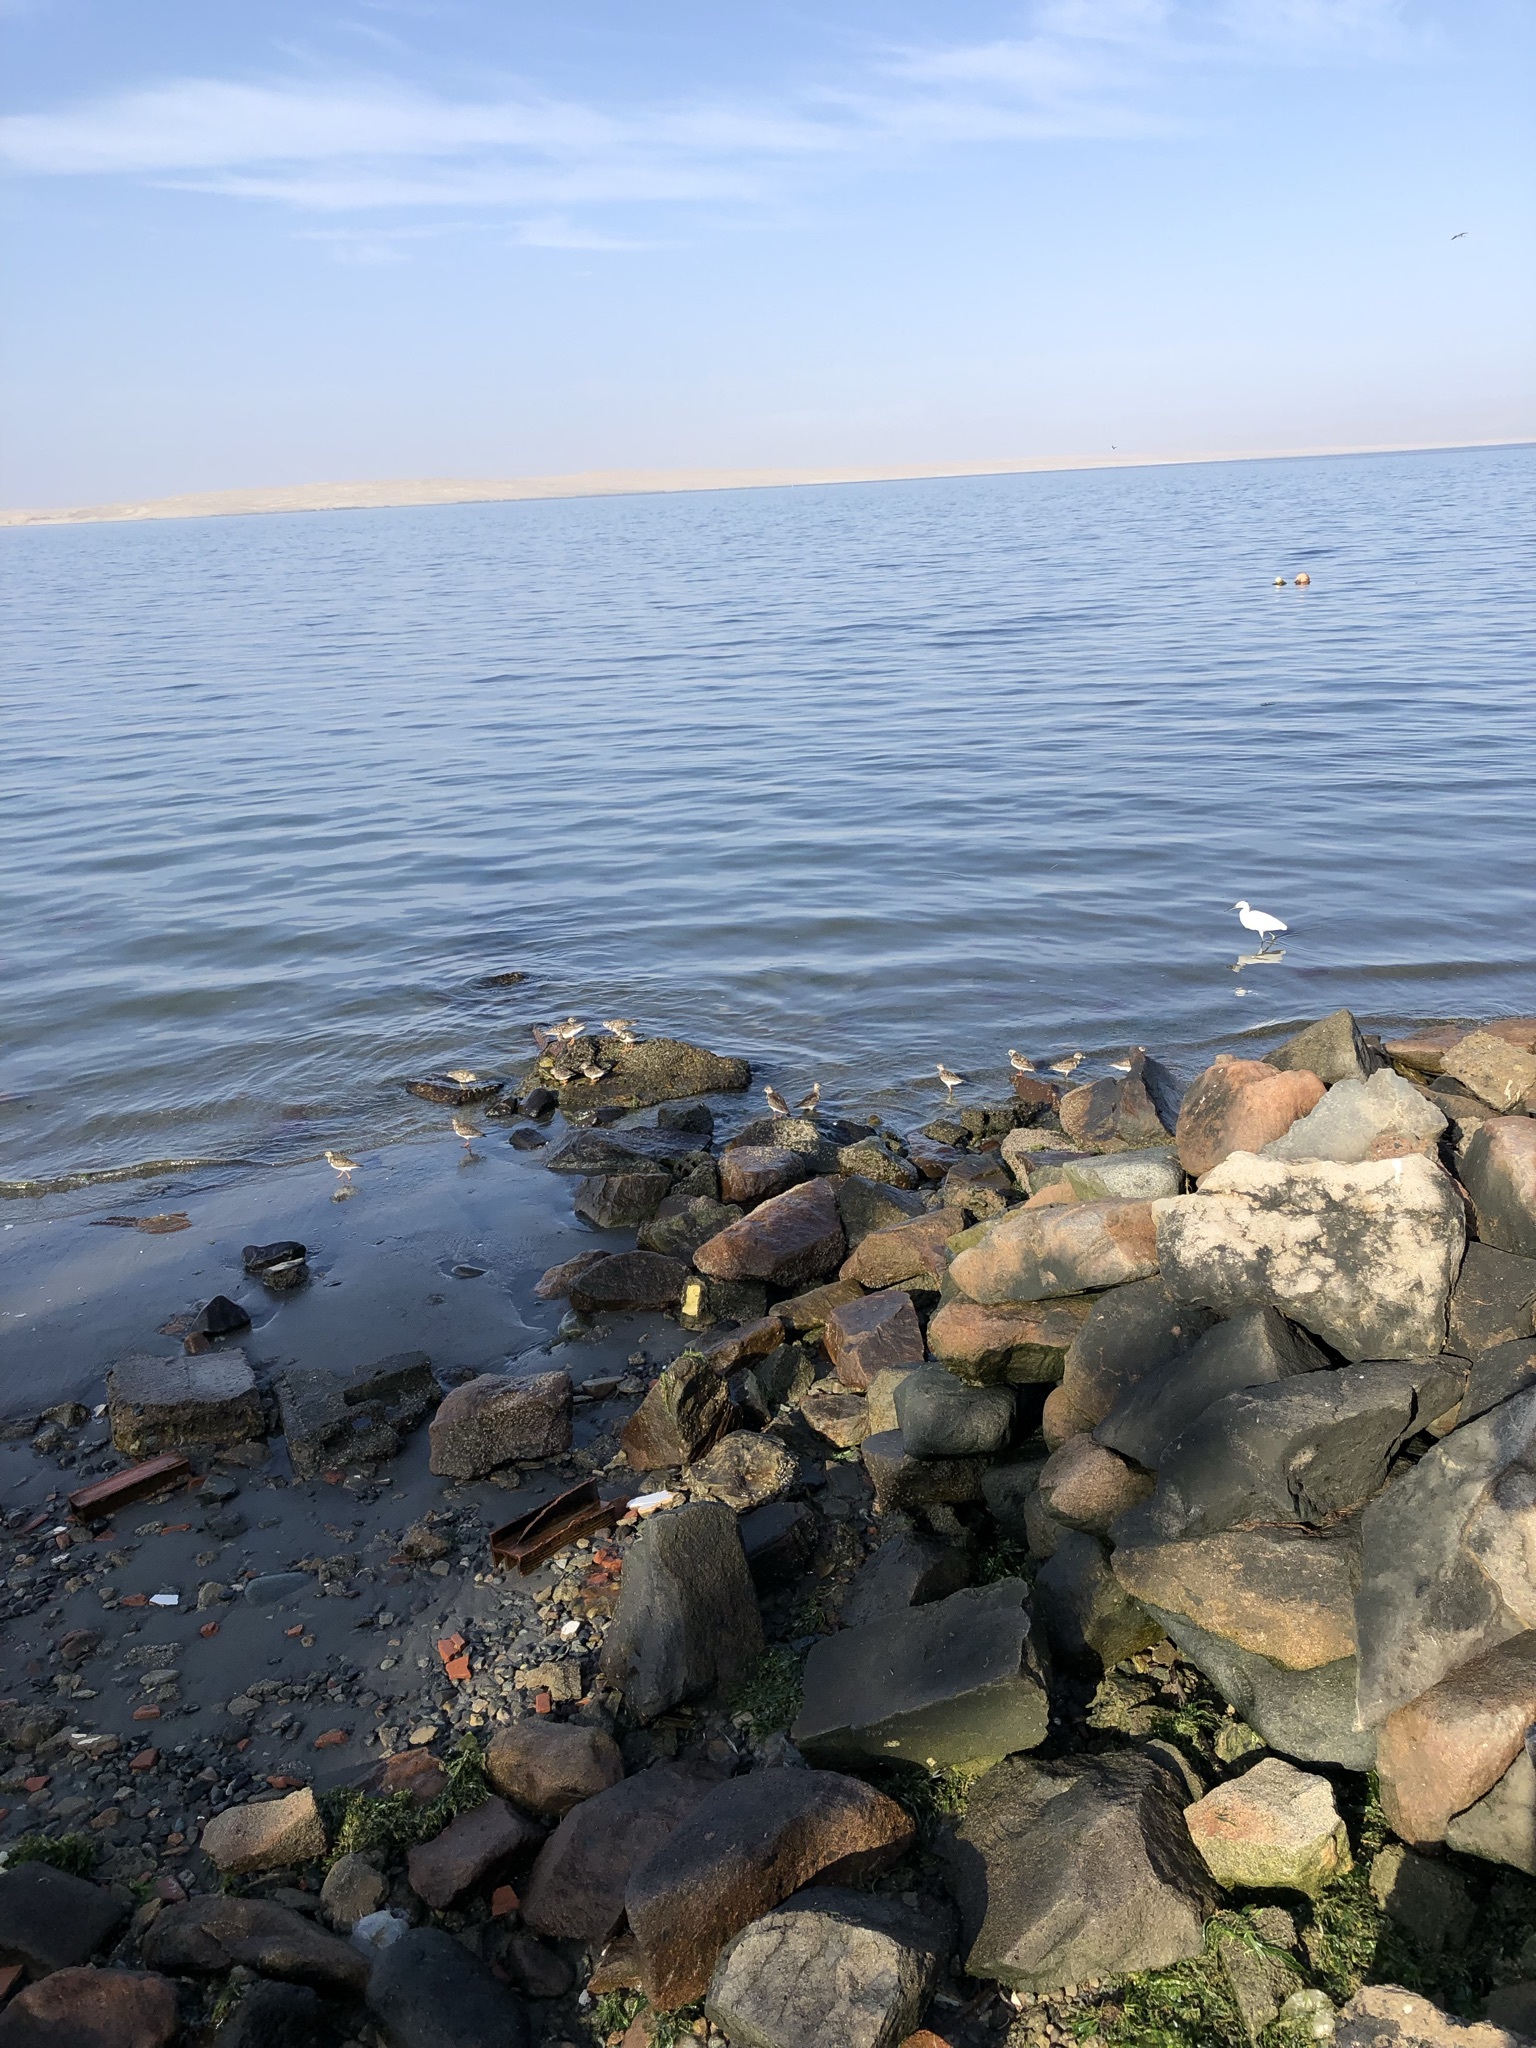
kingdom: Animalia
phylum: Chordata
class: Aves
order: Pelecaniformes
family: Ardeidae
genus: Egretta
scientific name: Egretta thula
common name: Snowy egret
